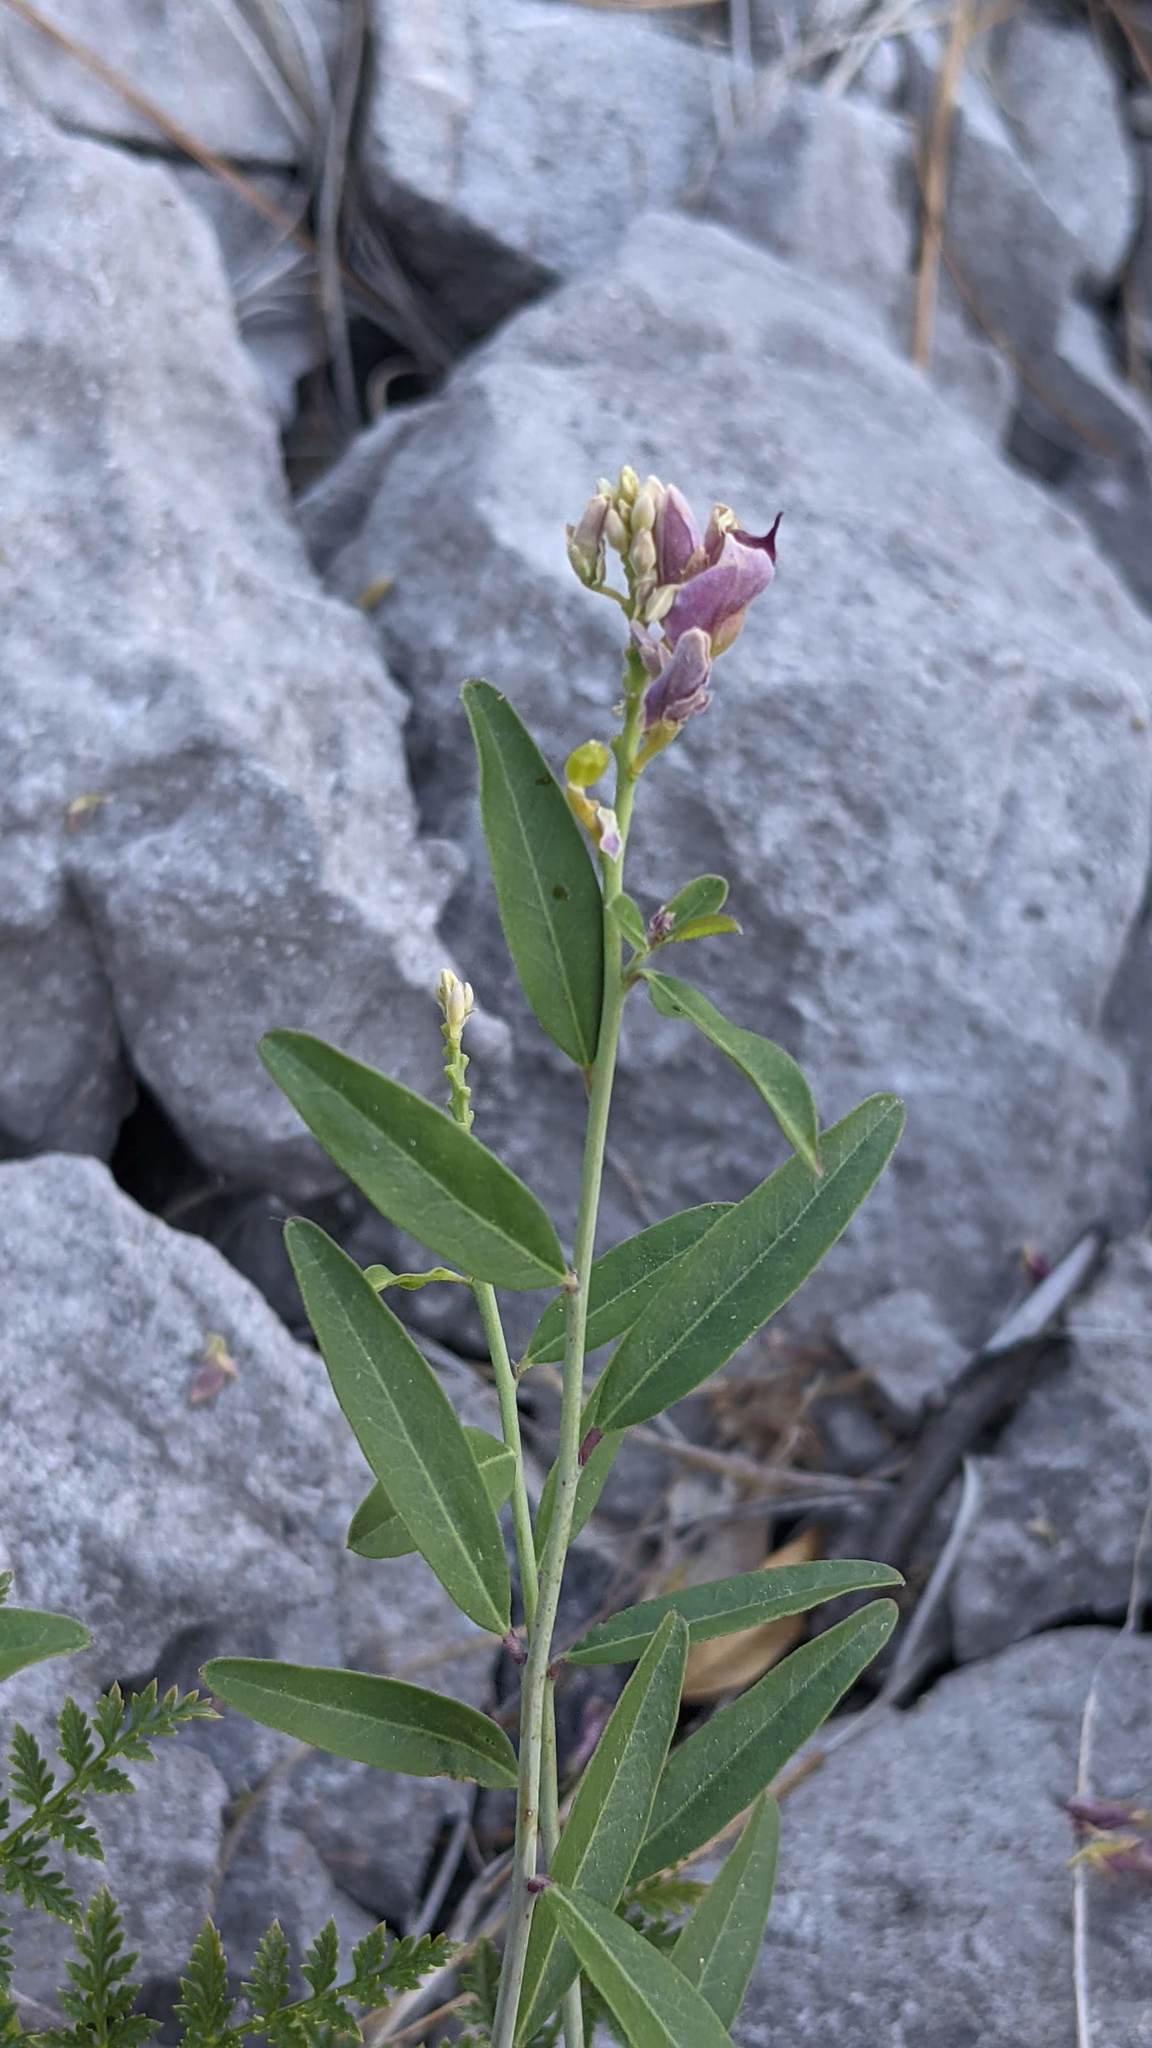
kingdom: Plantae
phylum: Tracheophyta
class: Magnoliopsida
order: Fabales
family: Polygalaceae
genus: Rhinotropis
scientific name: Rhinotropis cornuta
